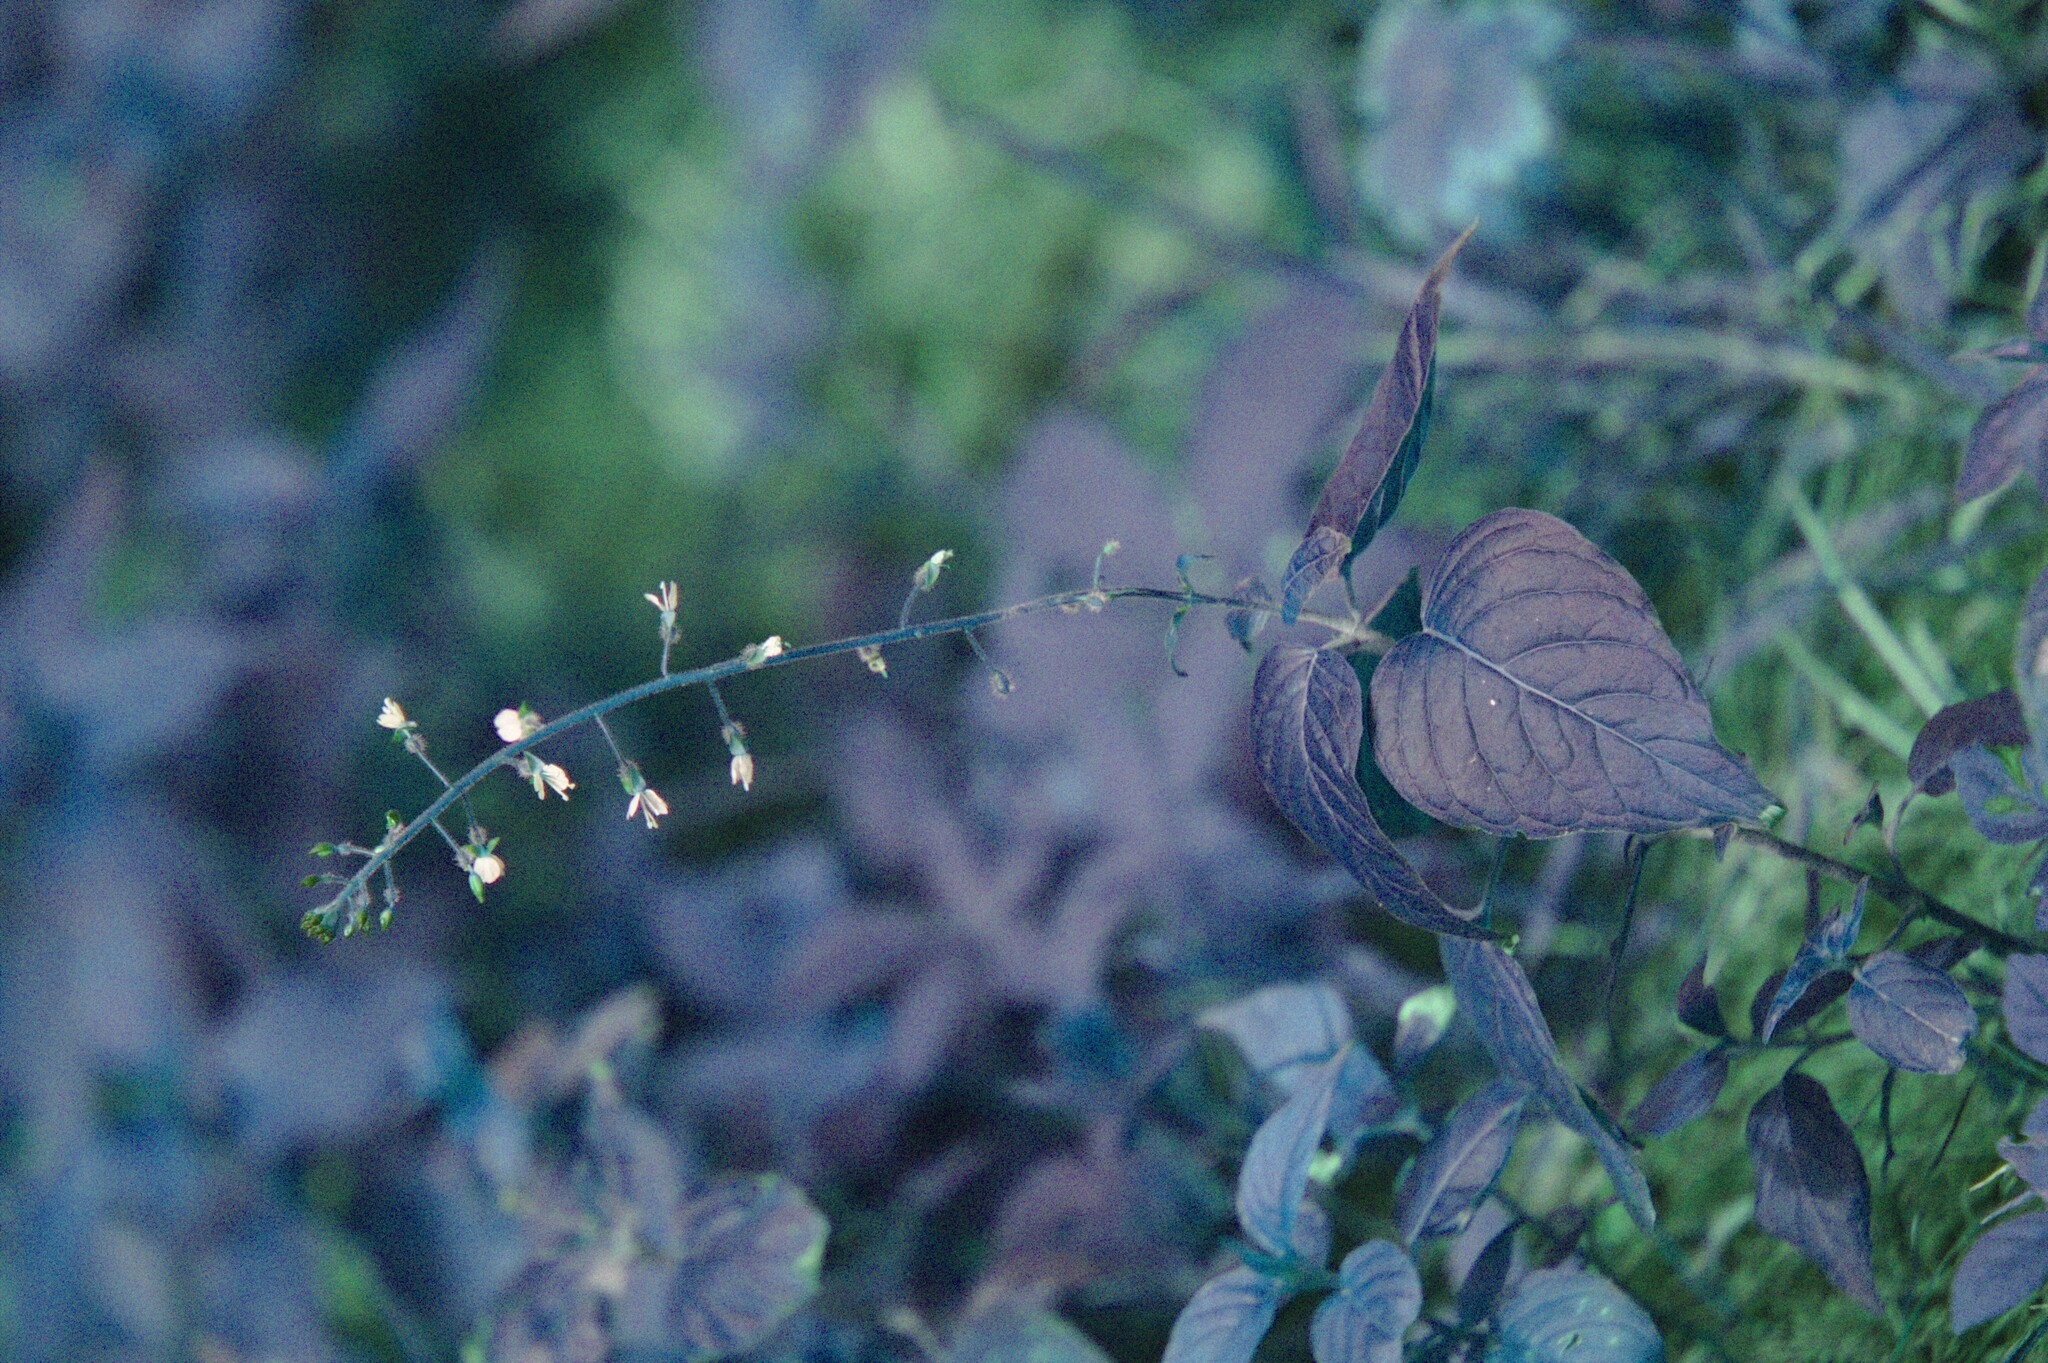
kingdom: Plantae
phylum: Tracheophyta
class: Magnoliopsida
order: Myrtales
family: Onagraceae
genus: Circaea
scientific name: Circaea lutetiana
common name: Enchanter's-nightshade
